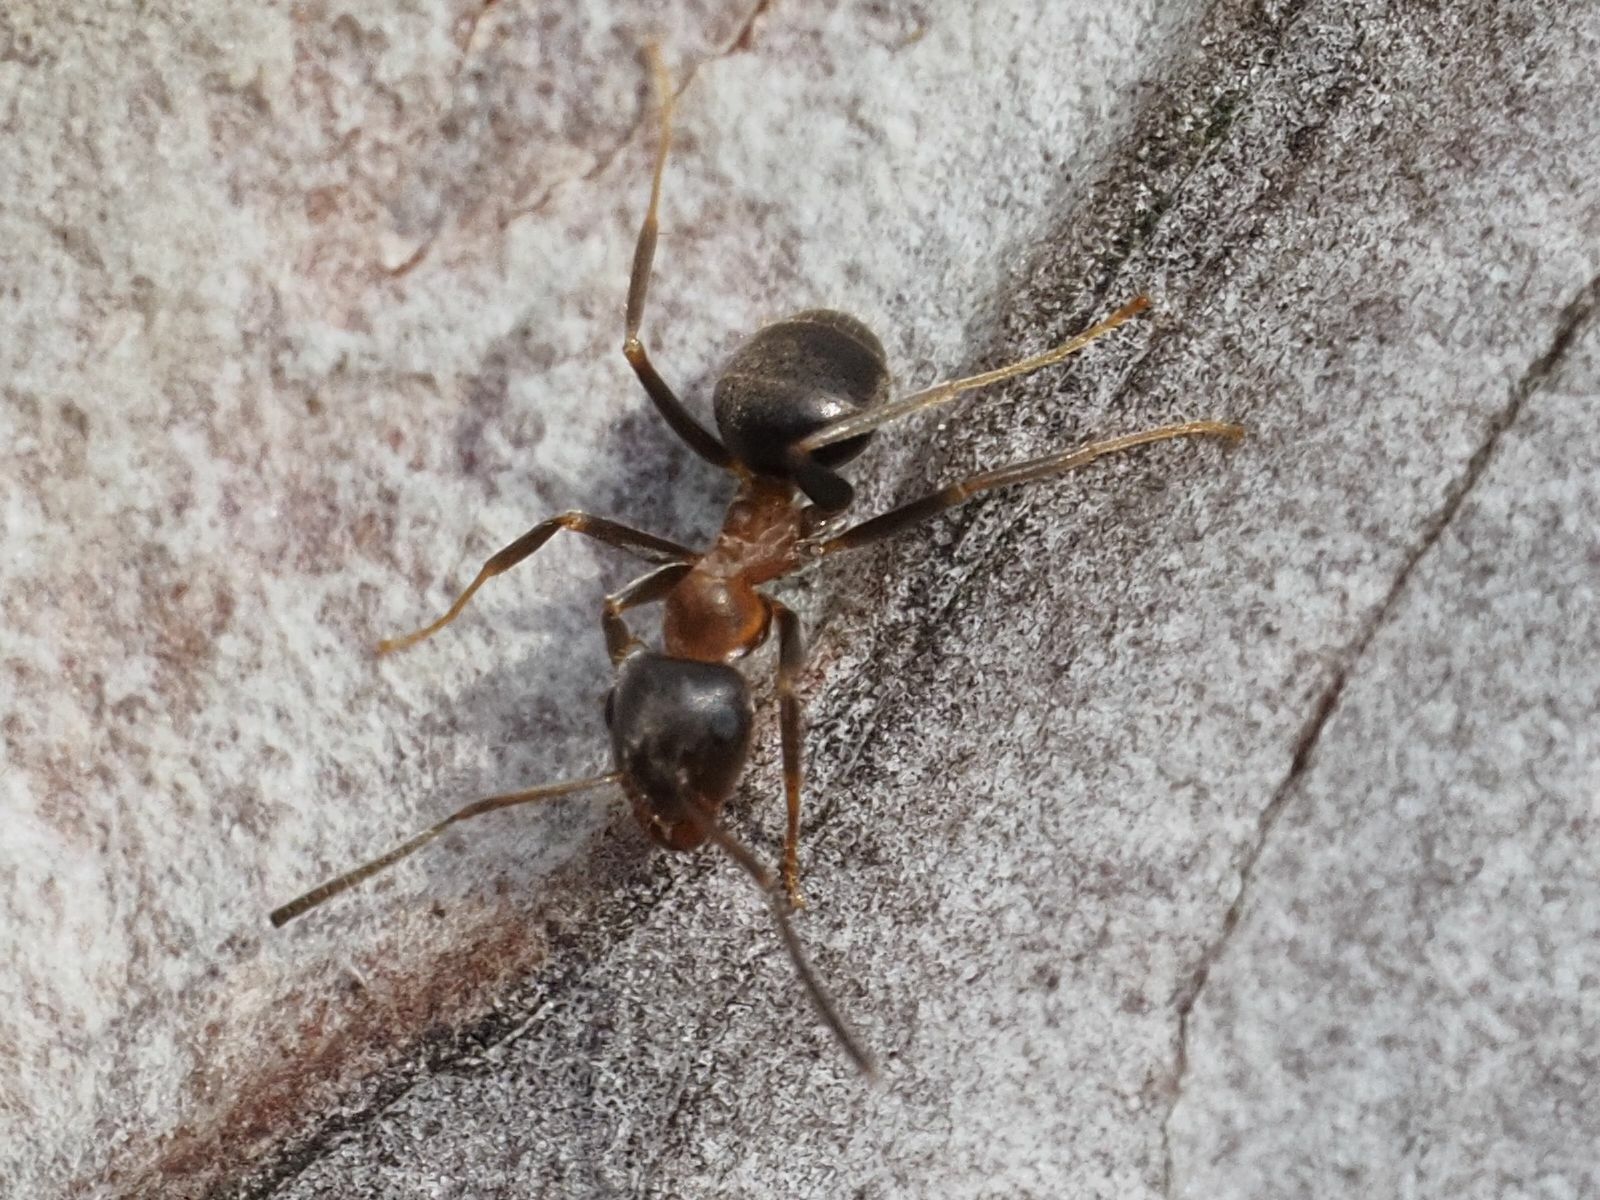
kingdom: Animalia
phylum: Arthropoda
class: Insecta
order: Hymenoptera
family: Formicidae
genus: Lasius
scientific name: Lasius emarginatus
